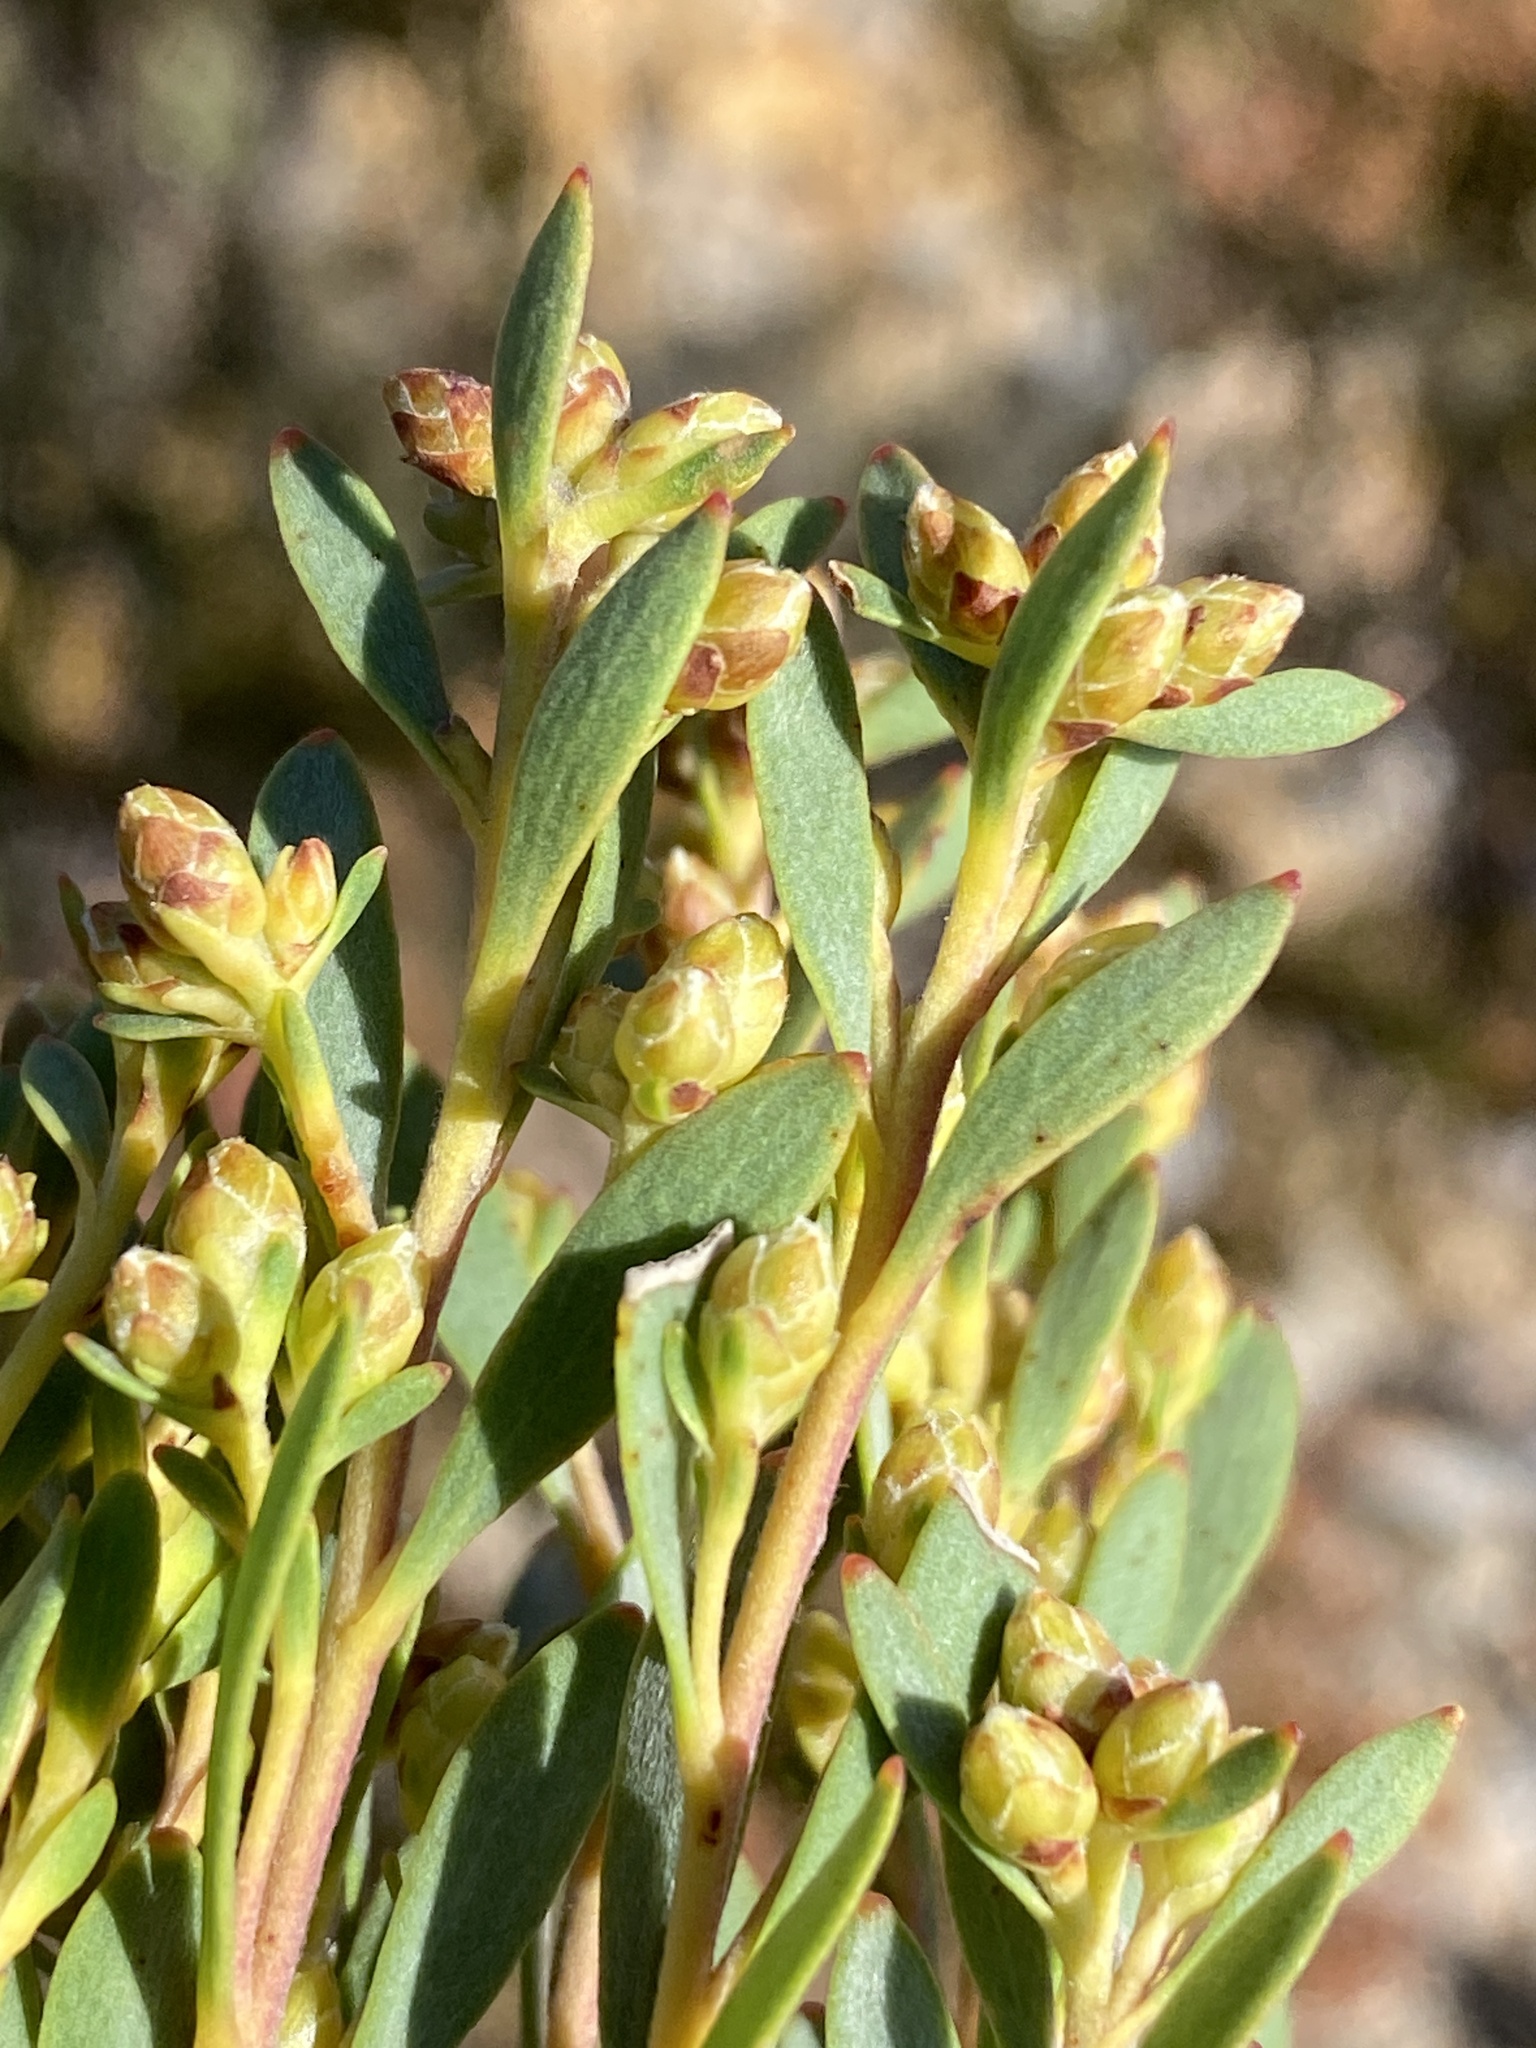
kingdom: Plantae
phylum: Tracheophyta
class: Magnoliopsida
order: Proteales
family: Proteaceae
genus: Leucadendron
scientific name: Leucadendron rubrum
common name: Spinning top
